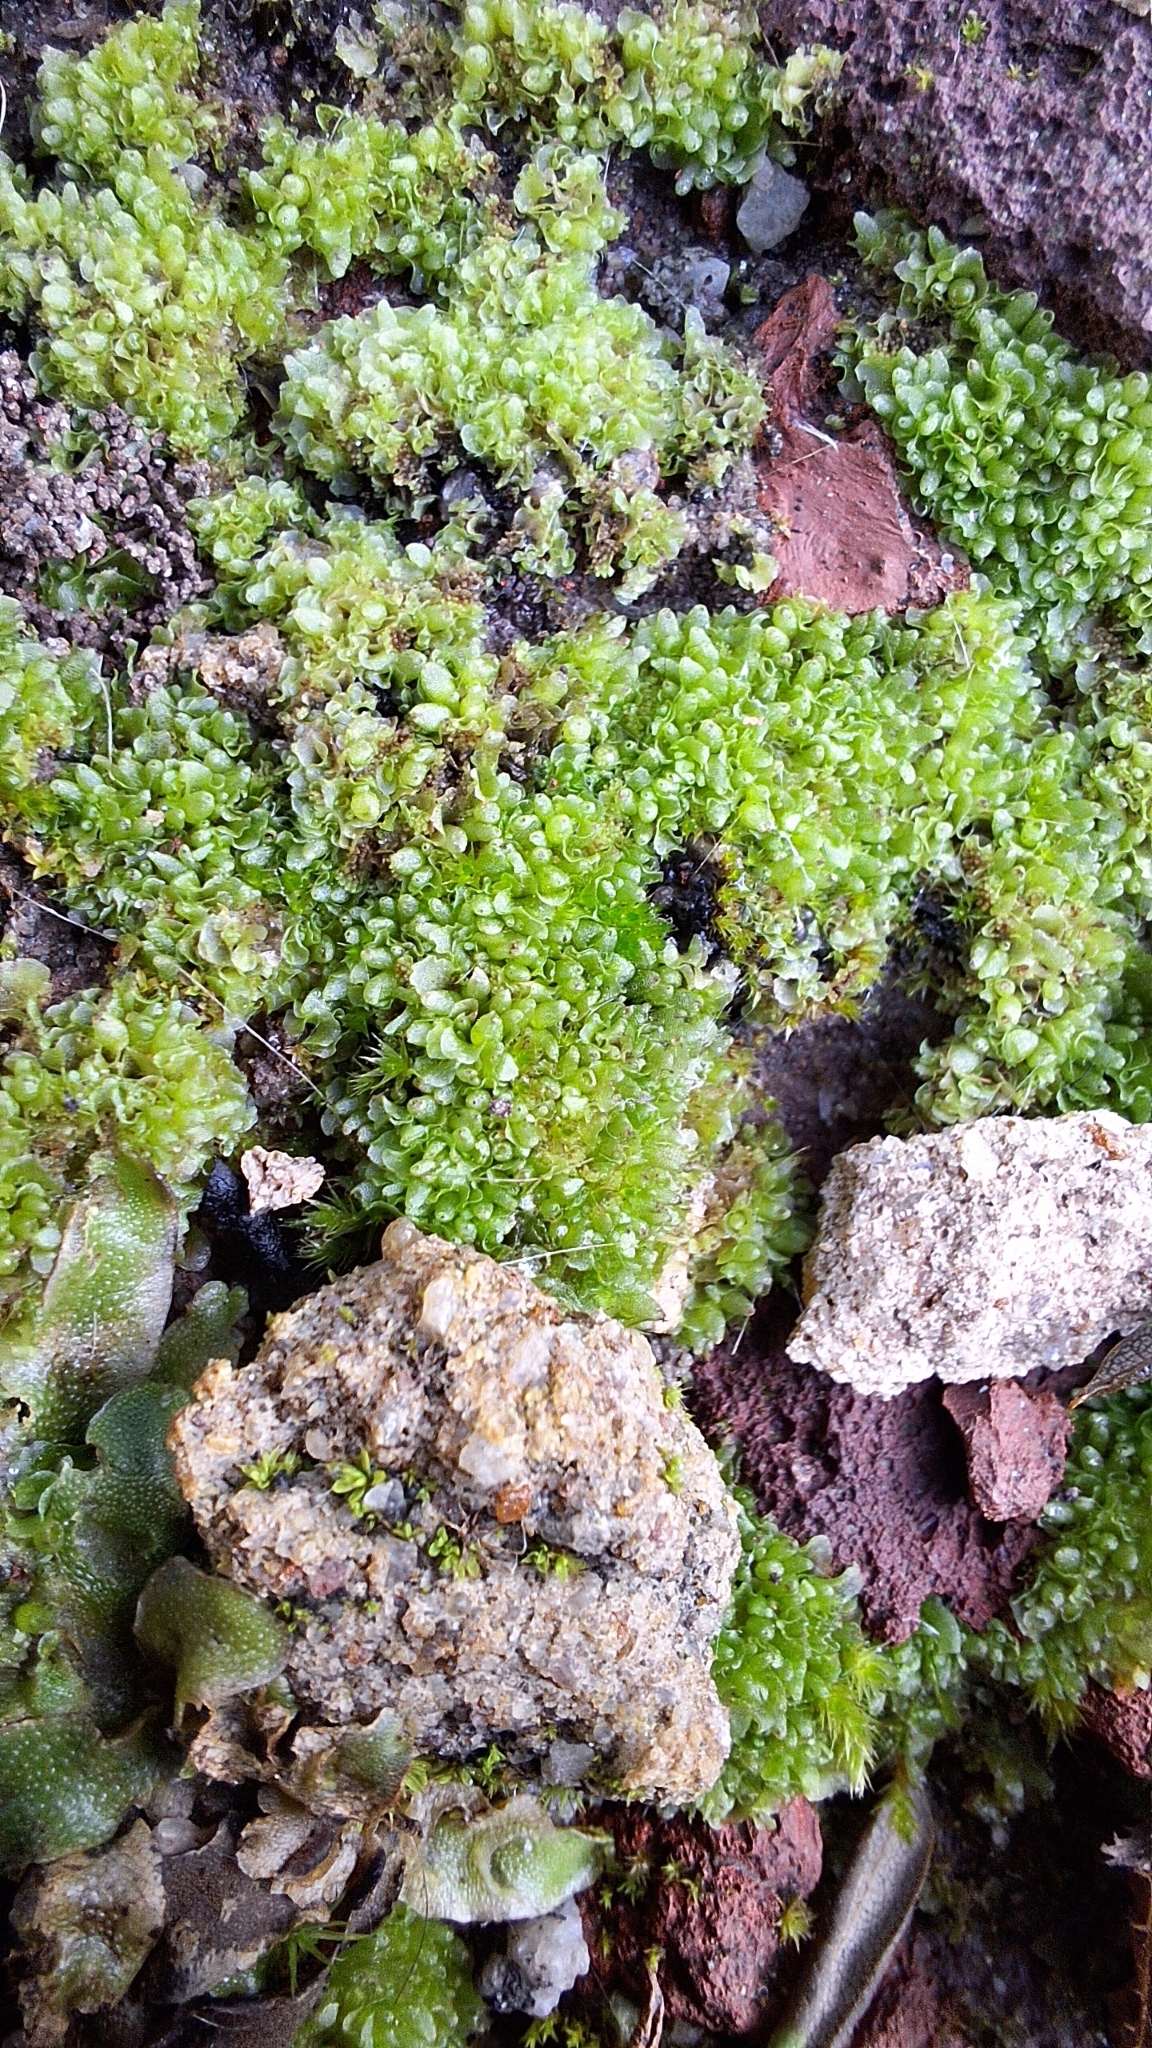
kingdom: Plantae
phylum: Marchantiophyta
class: Marchantiopsida
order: Sphaerocarpales
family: Sphaerocarpaceae
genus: Sphaerocarpos
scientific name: Sphaerocarpos texanus
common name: Texas balloonwort
